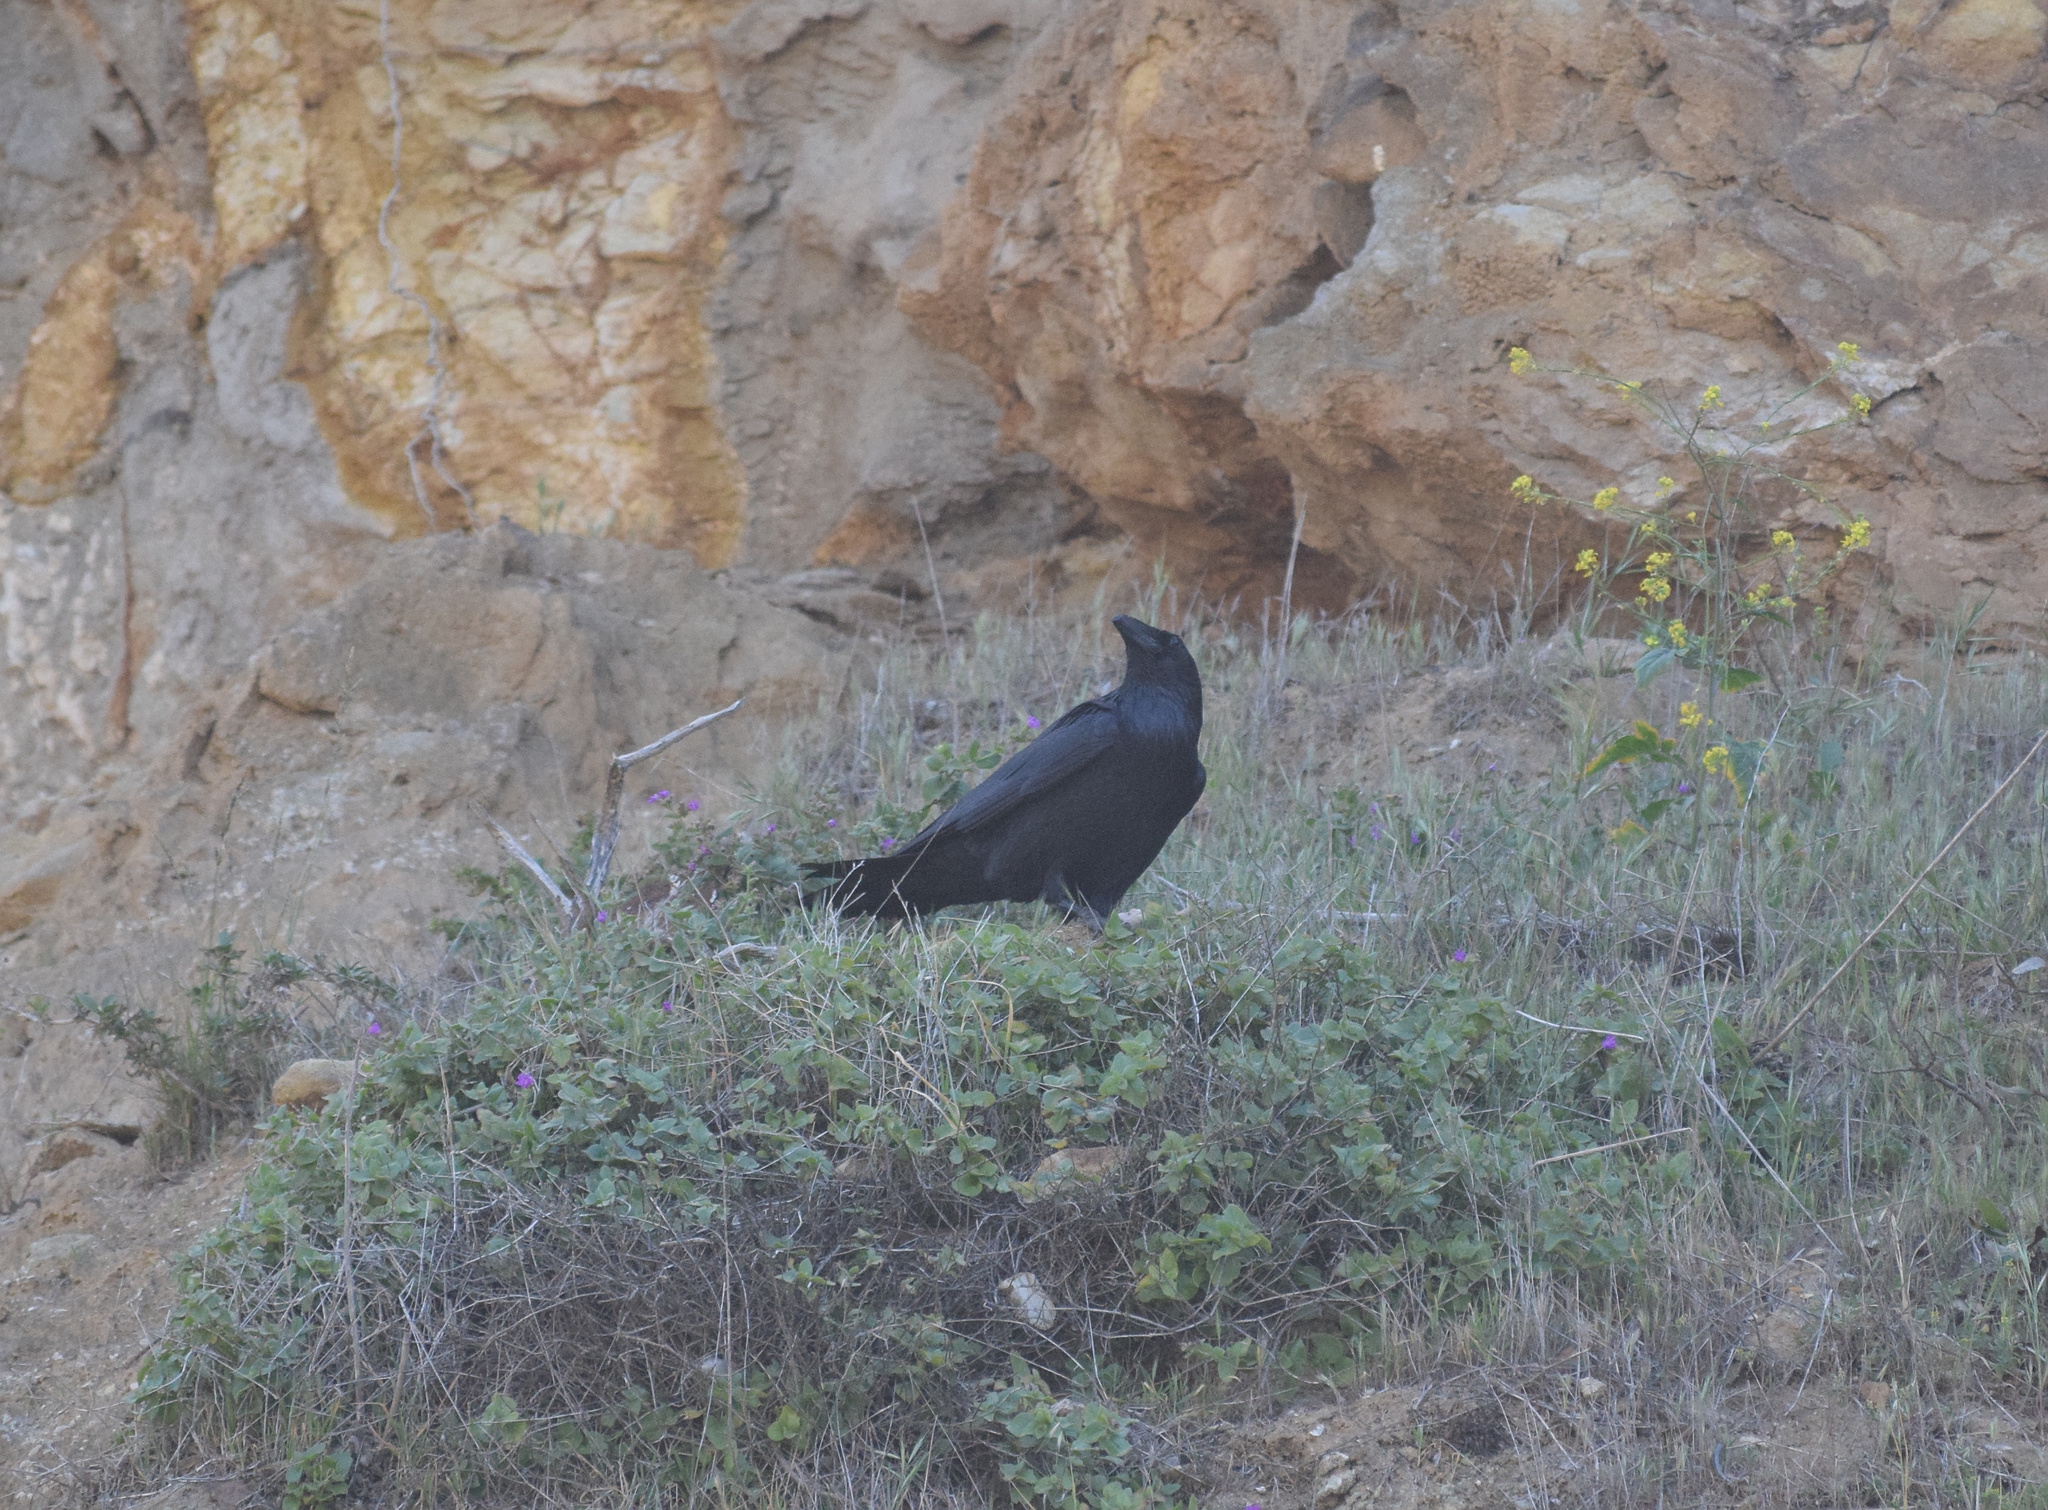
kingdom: Animalia
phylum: Chordata
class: Aves
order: Passeriformes
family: Corvidae
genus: Corvus
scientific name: Corvus corax
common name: Common raven
